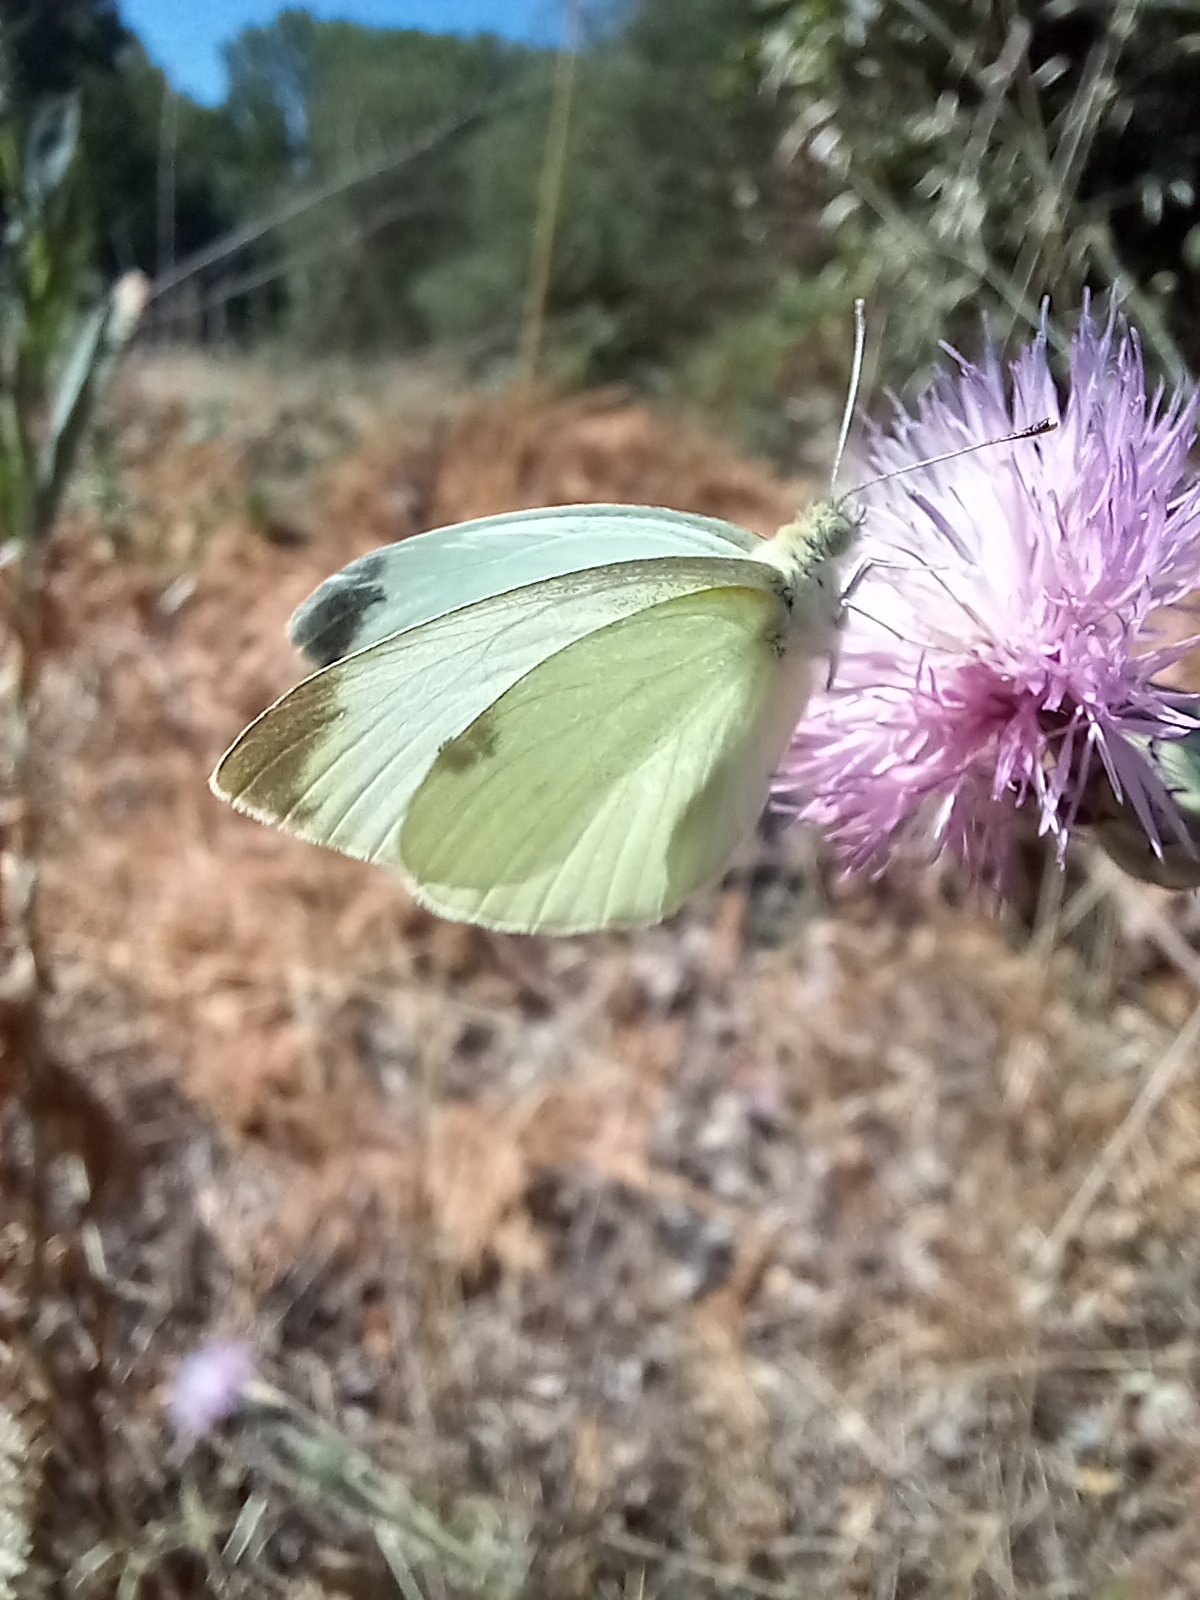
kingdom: Animalia
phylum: Arthropoda
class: Insecta
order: Lepidoptera
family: Pieridae
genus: Pieris
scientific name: Pieris rapae
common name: Small white
